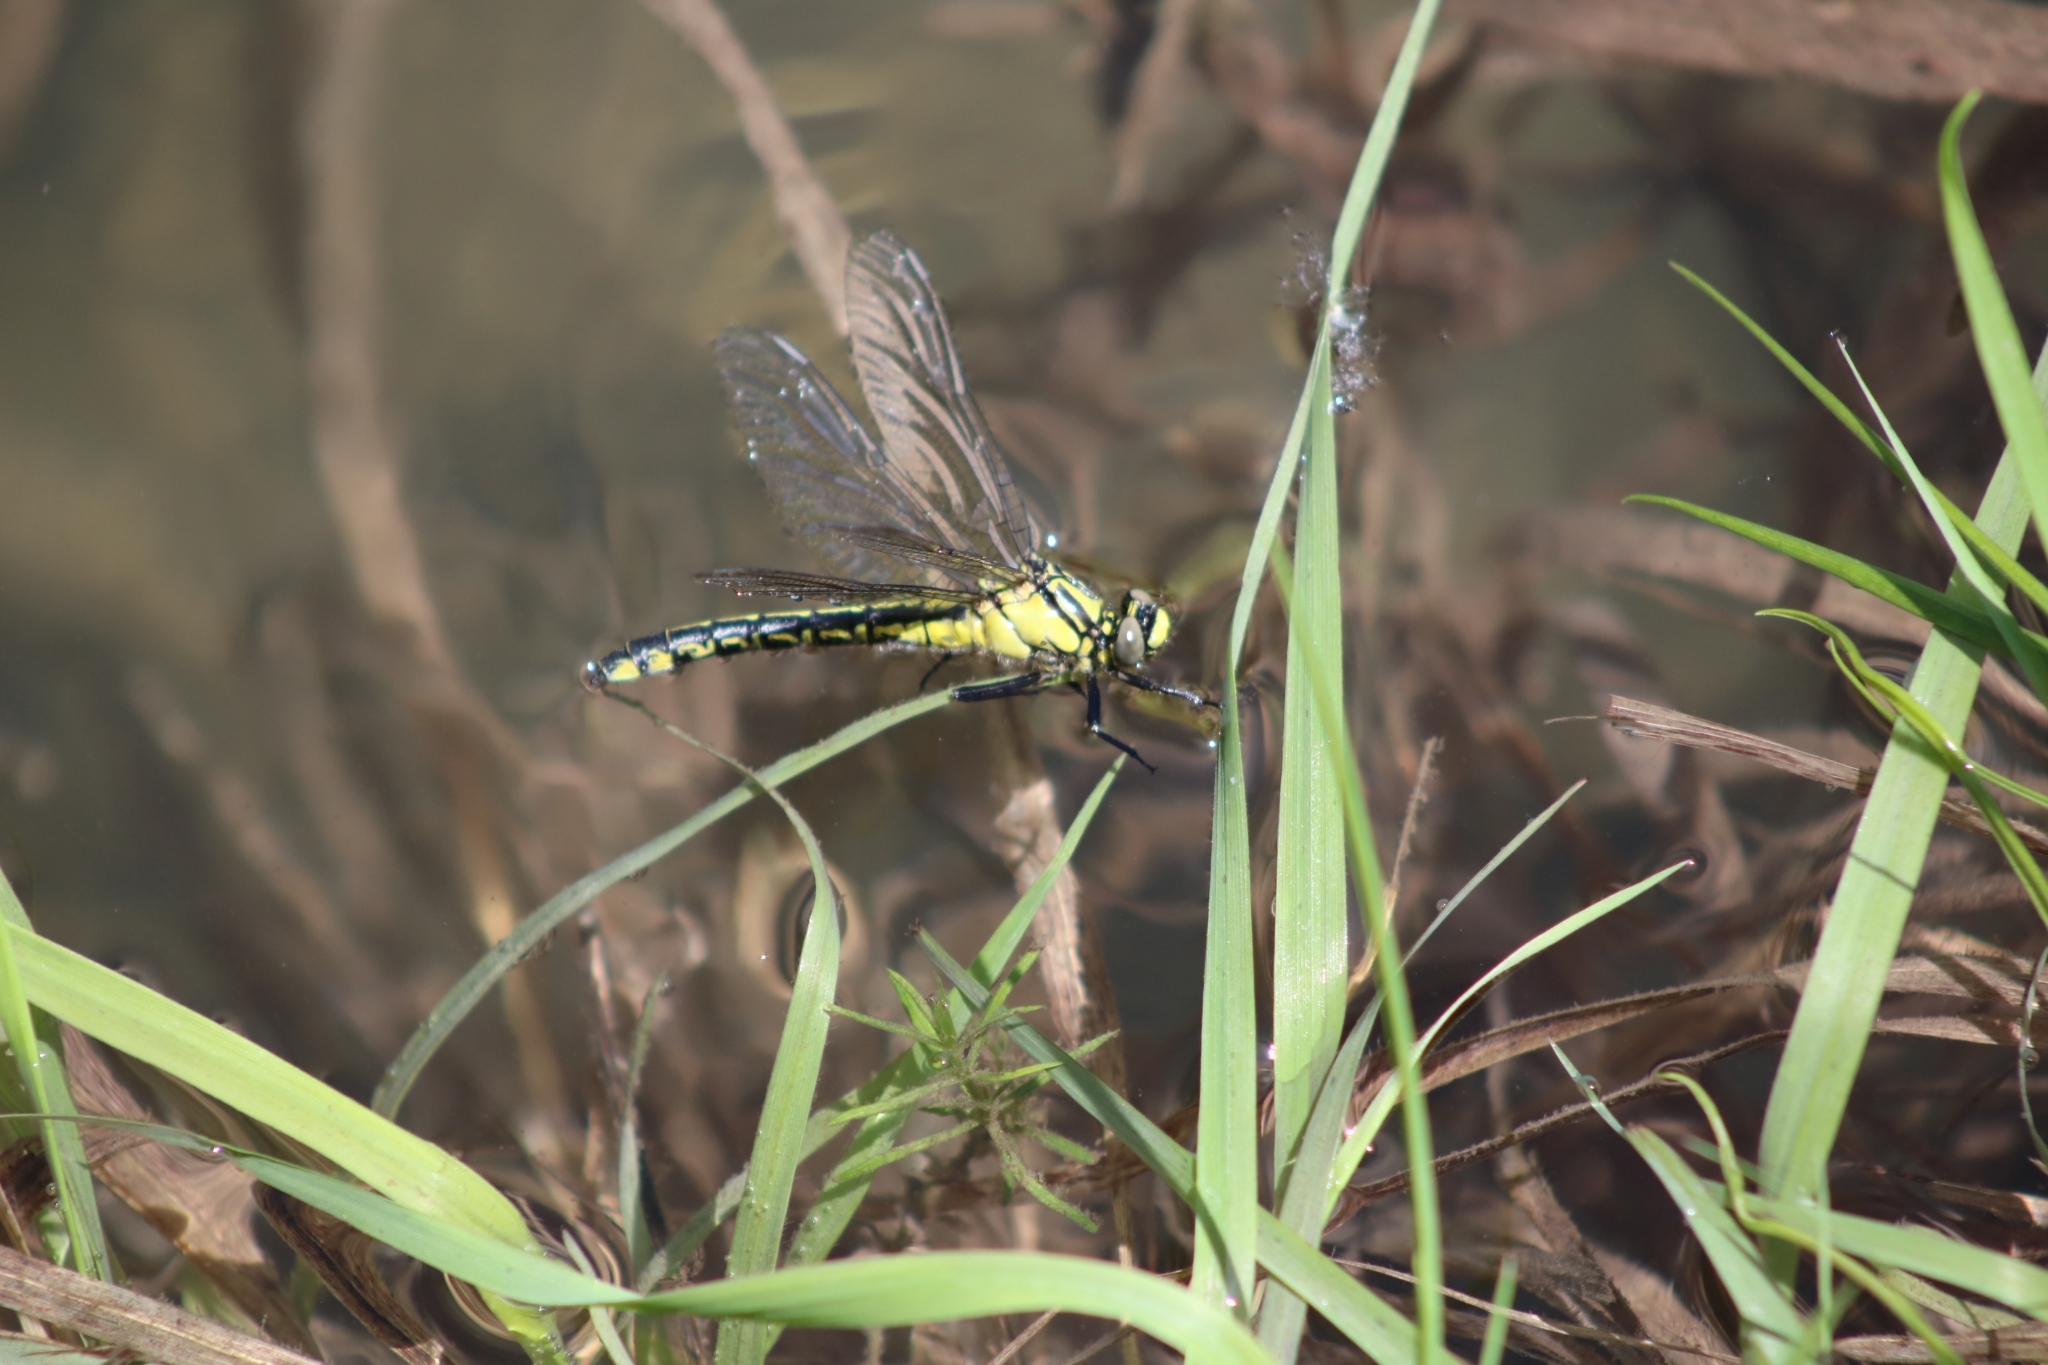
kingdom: Animalia
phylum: Arthropoda
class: Insecta
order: Odonata
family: Gomphidae
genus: Gomphus
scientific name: Gomphus vulgatissimus
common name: Club-tailed dragonfly
